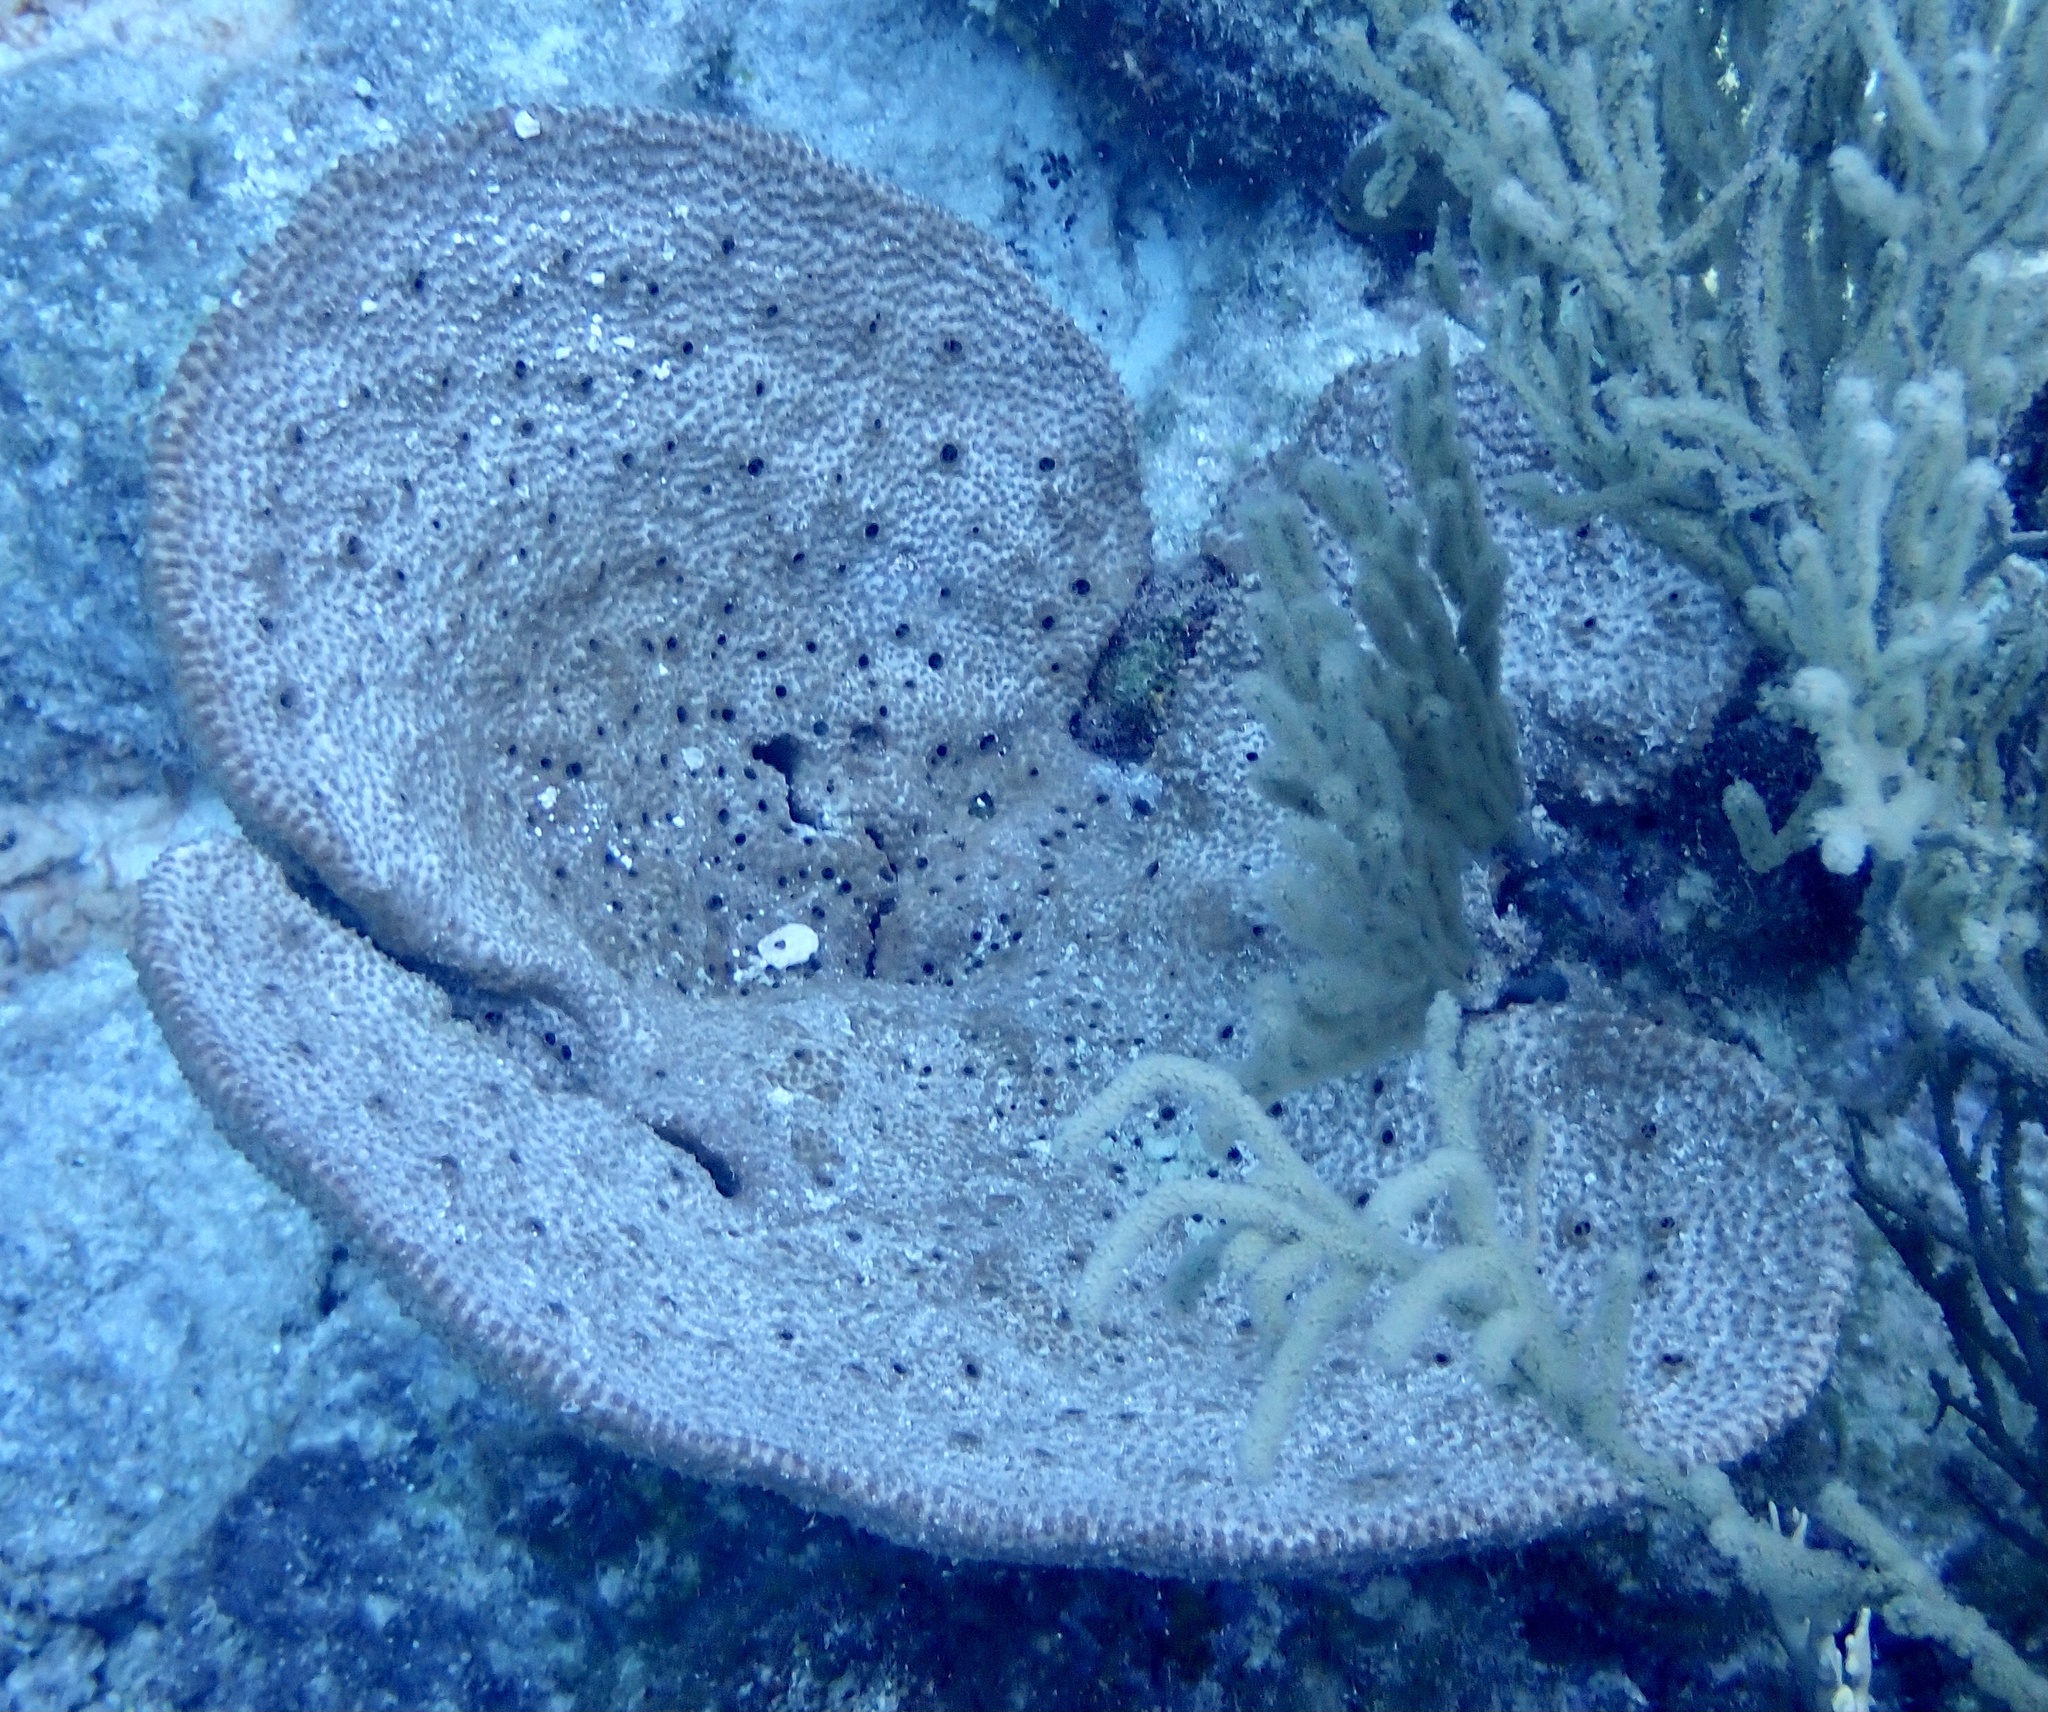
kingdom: Animalia
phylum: Porifera
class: Demospongiae
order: Dictyoceratida
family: Irciniidae
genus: Ircinia
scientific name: Ircinia campana
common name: Vase sponge
